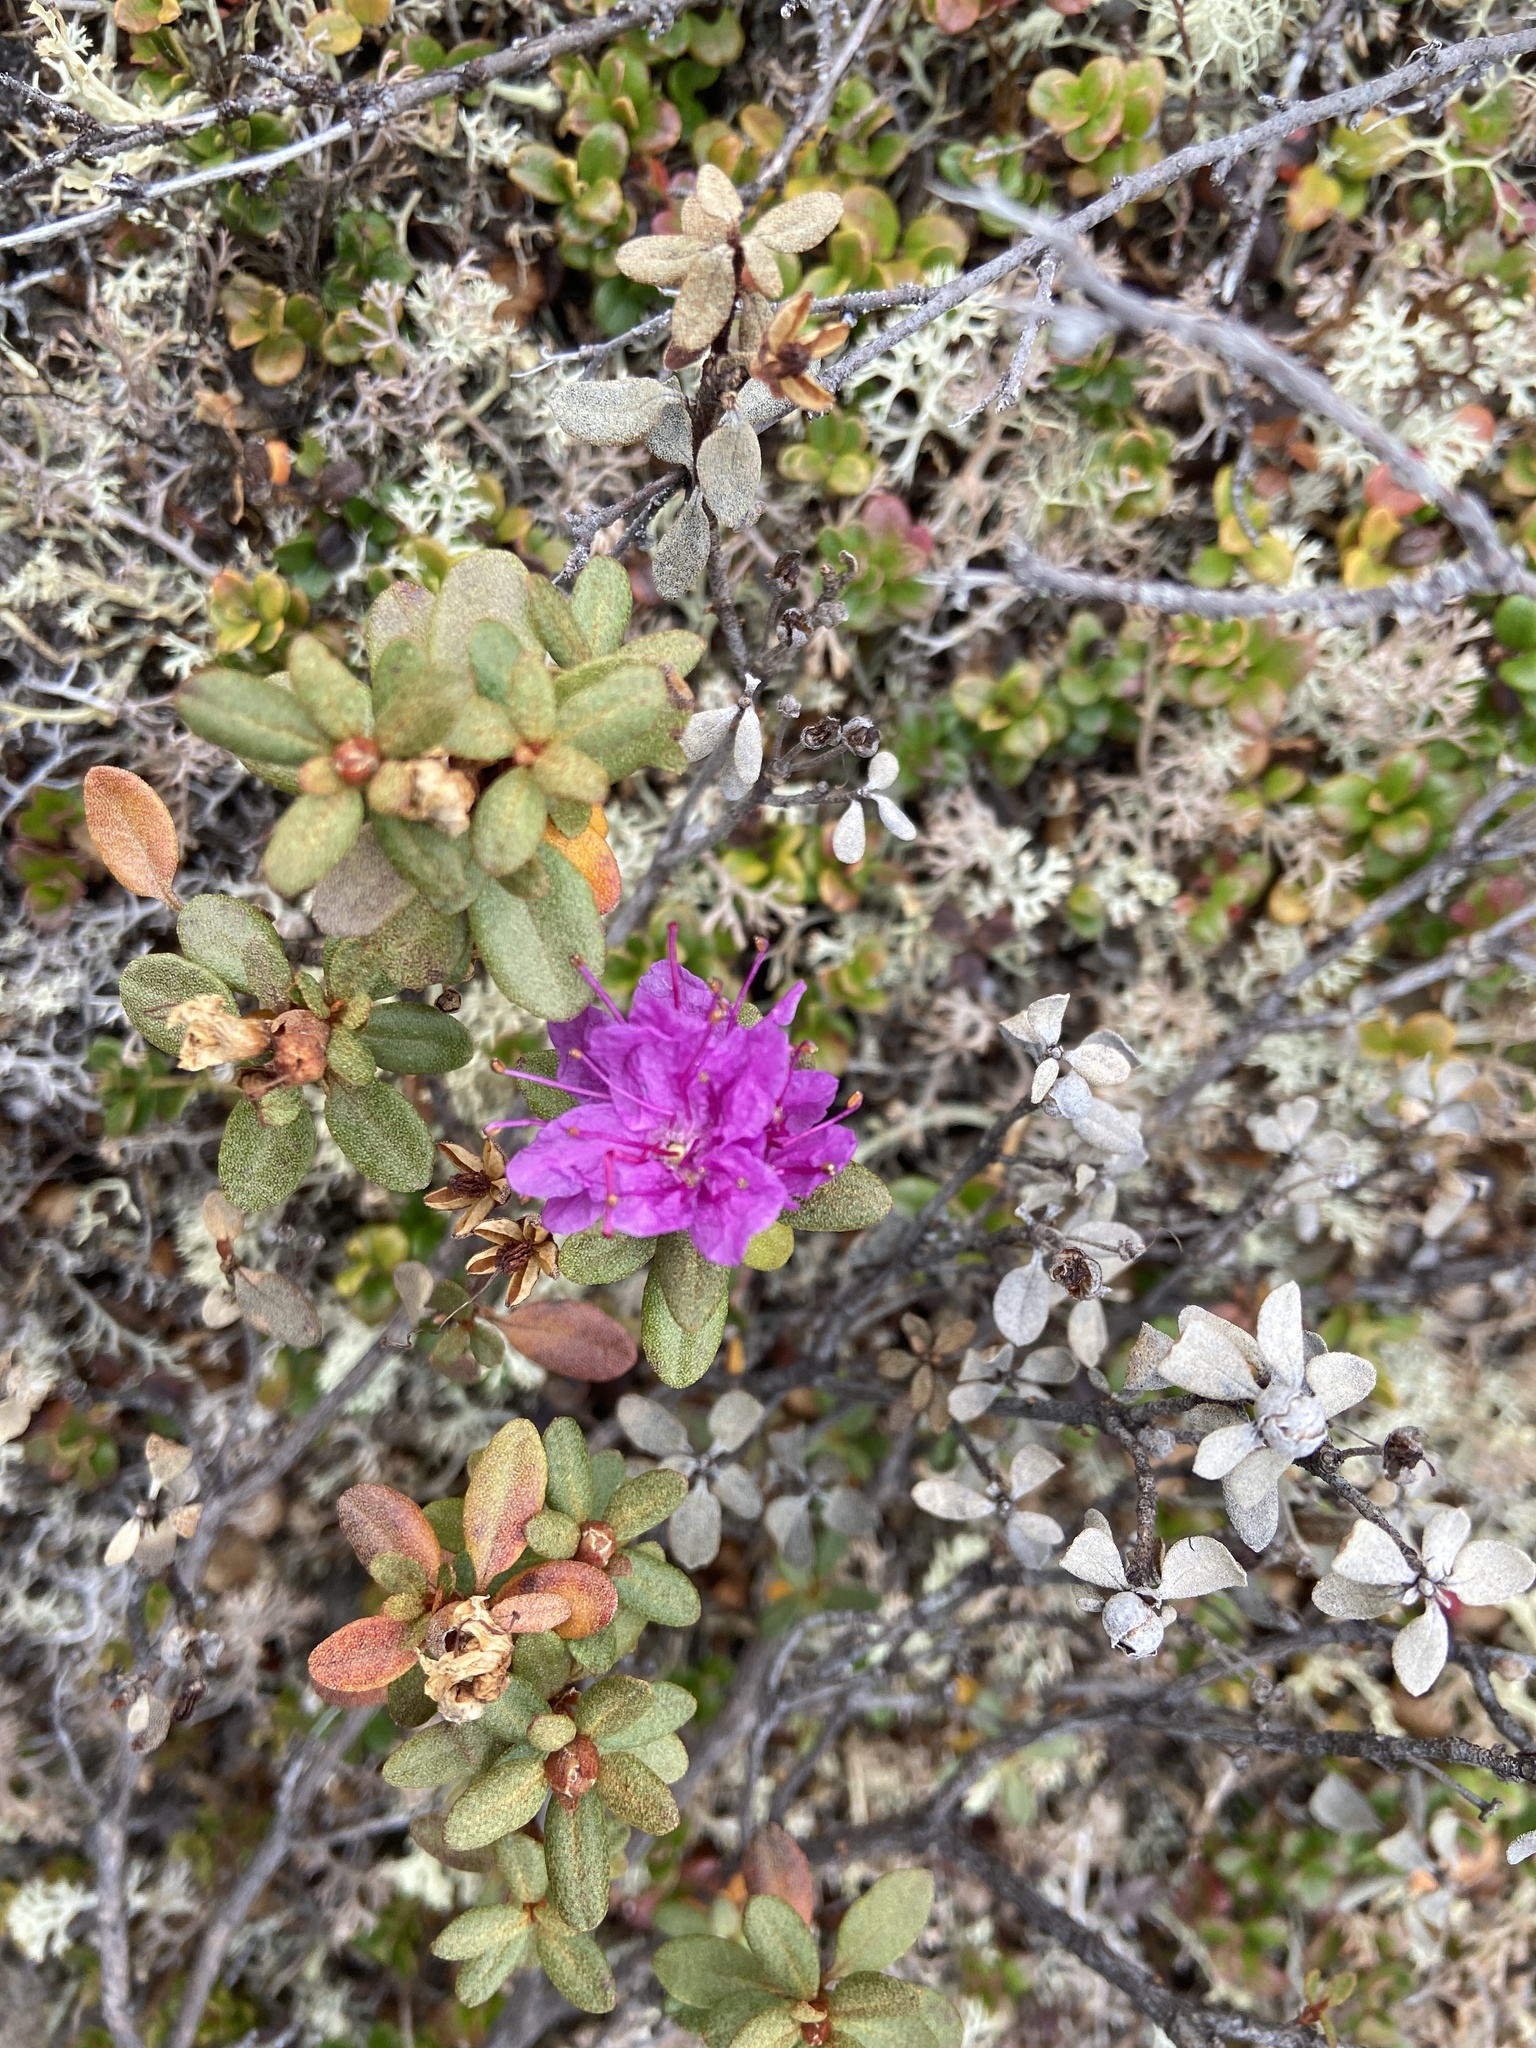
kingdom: Plantae
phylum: Tracheophyta
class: Magnoliopsida
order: Ericales
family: Ericaceae
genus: Rhododendron
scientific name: Rhododendron parvifolium
